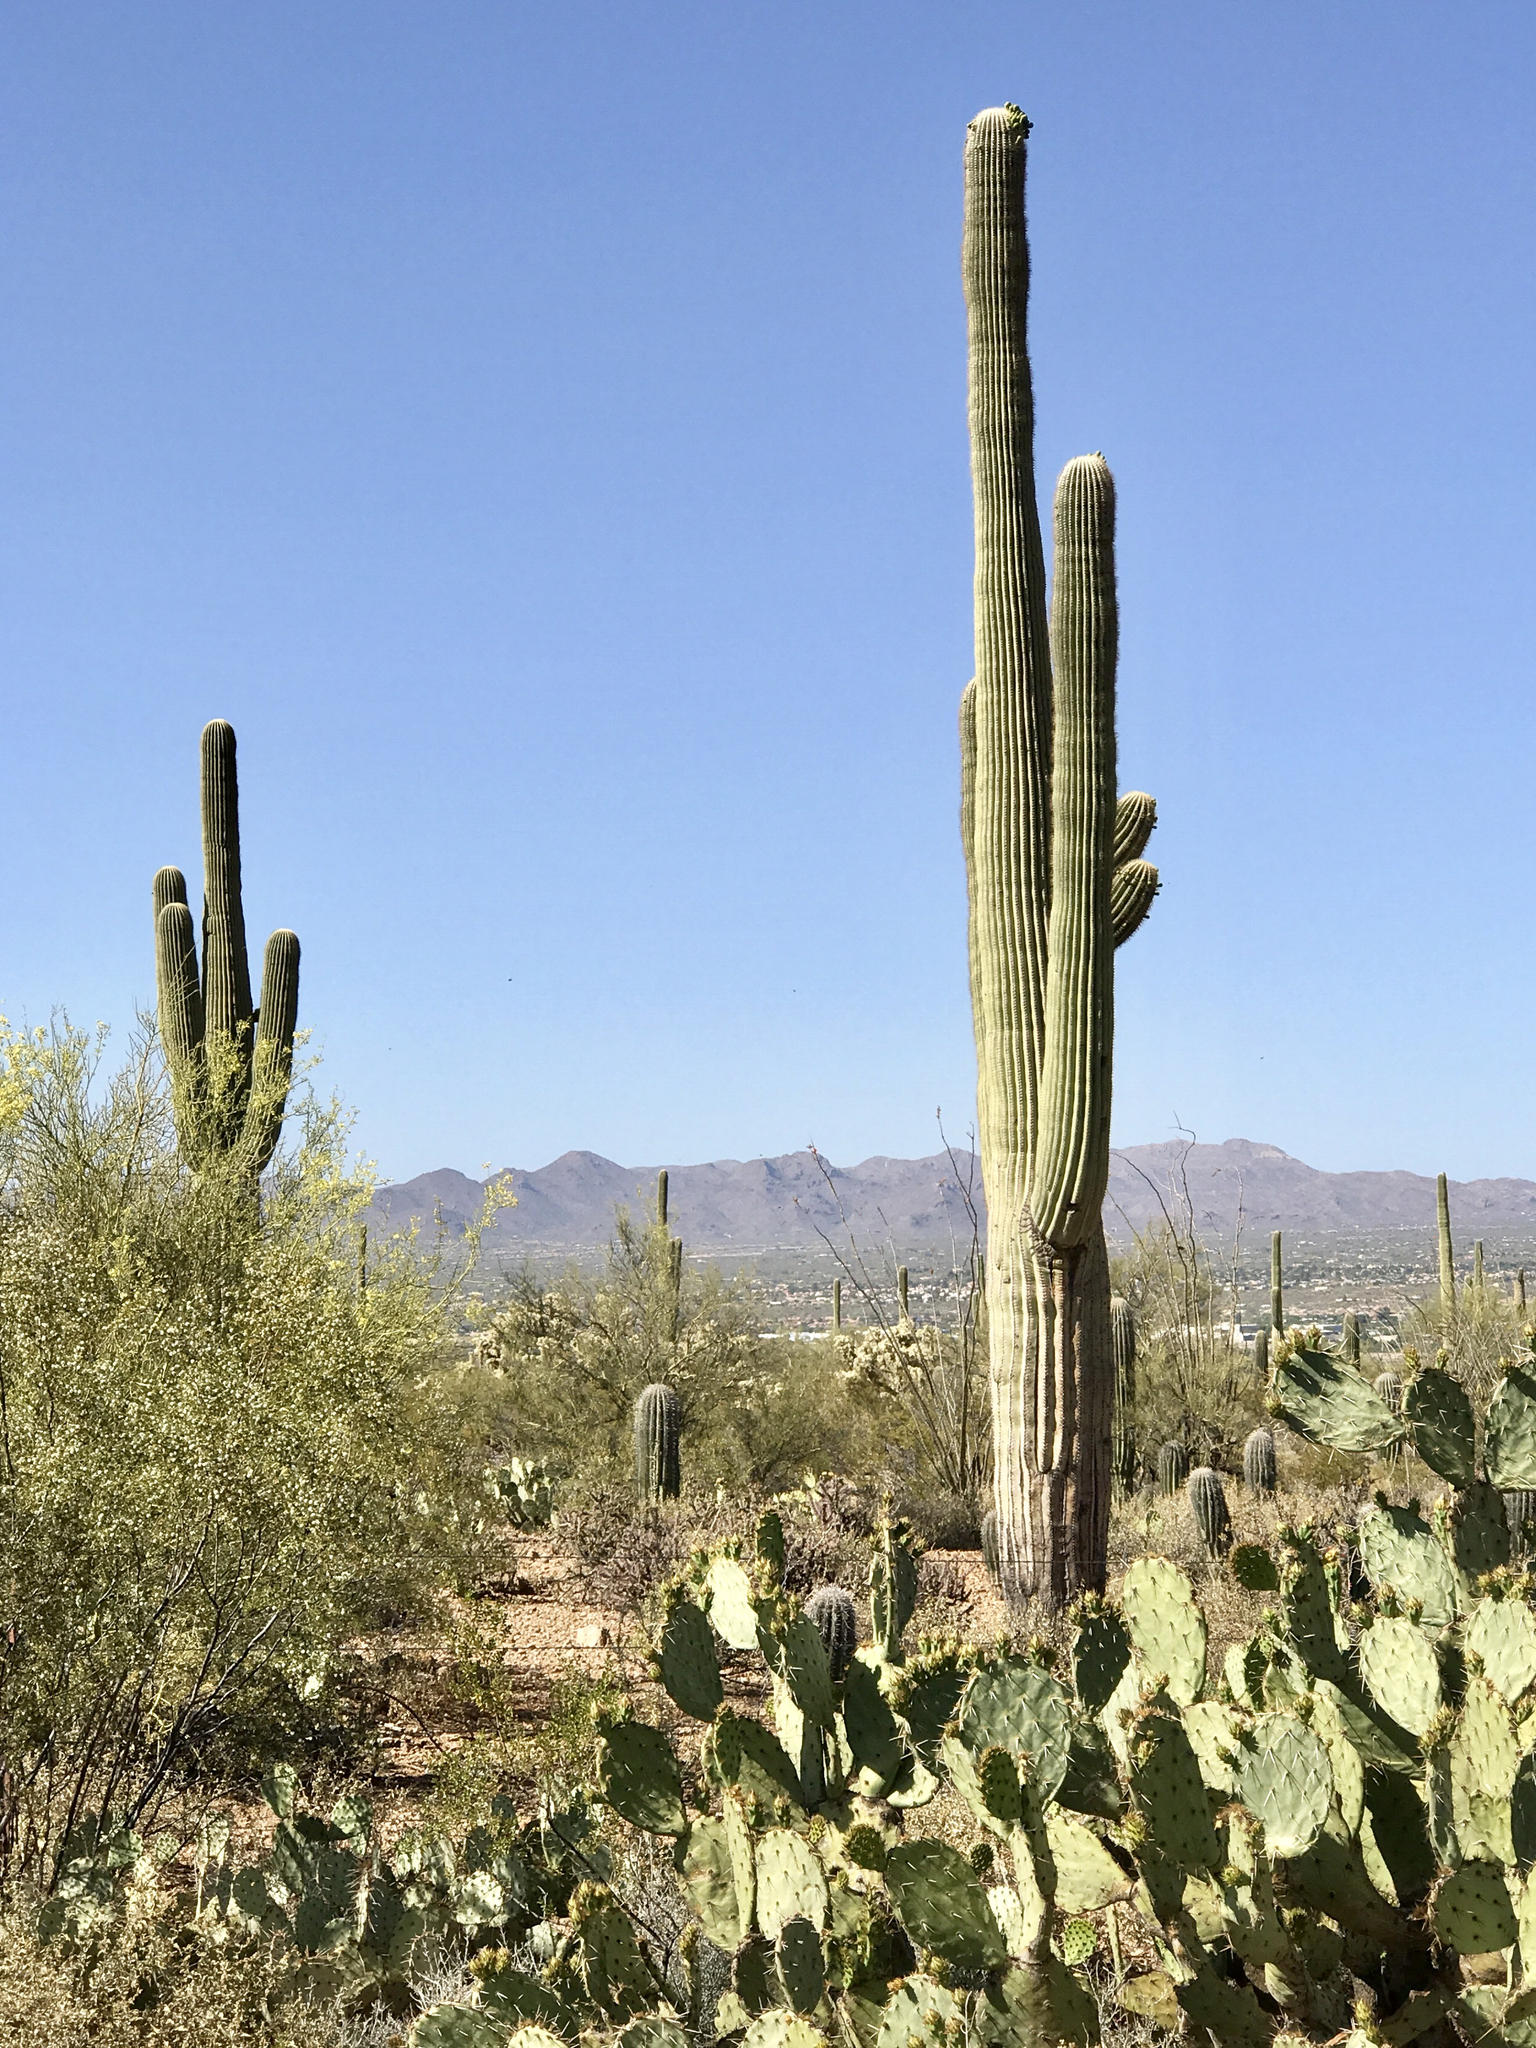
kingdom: Plantae
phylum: Tracheophyta
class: Magnoliopsida
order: Caryophyllales
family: Cactaceae
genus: Carnegiea
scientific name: Carnegiea gigantea
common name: Saguaro
